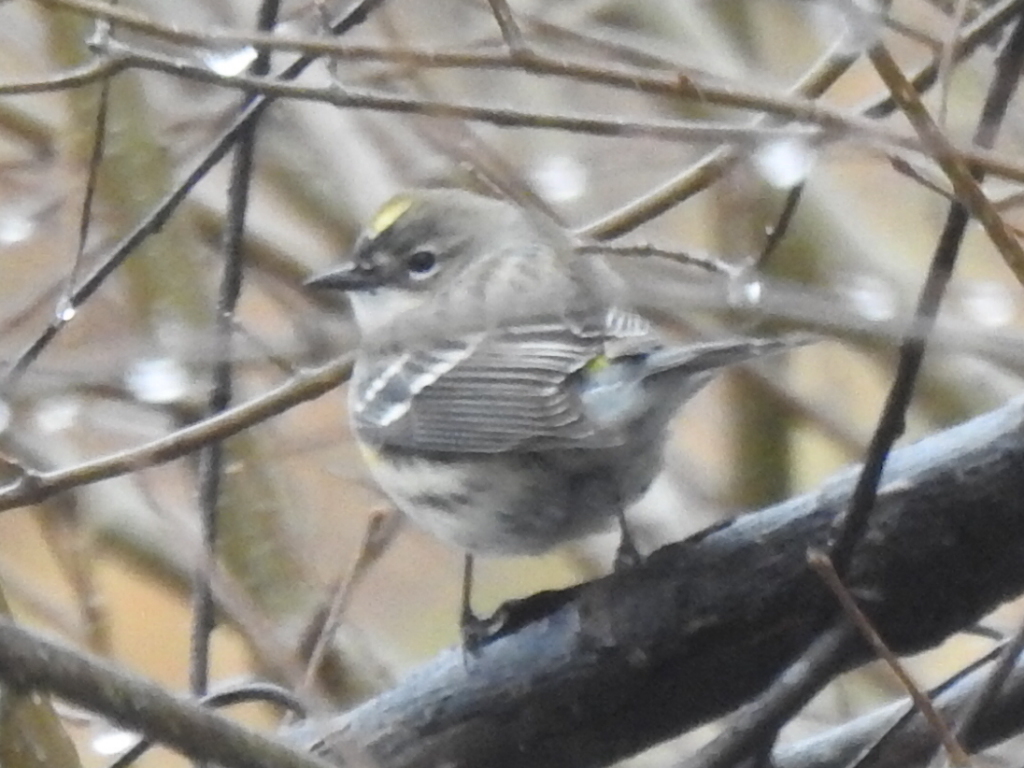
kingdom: Animalia
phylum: Chordata
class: Aves
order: Passeriformes
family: Parulidae
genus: Setophaga
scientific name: Setophaga coronata
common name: Myrtle warbler
